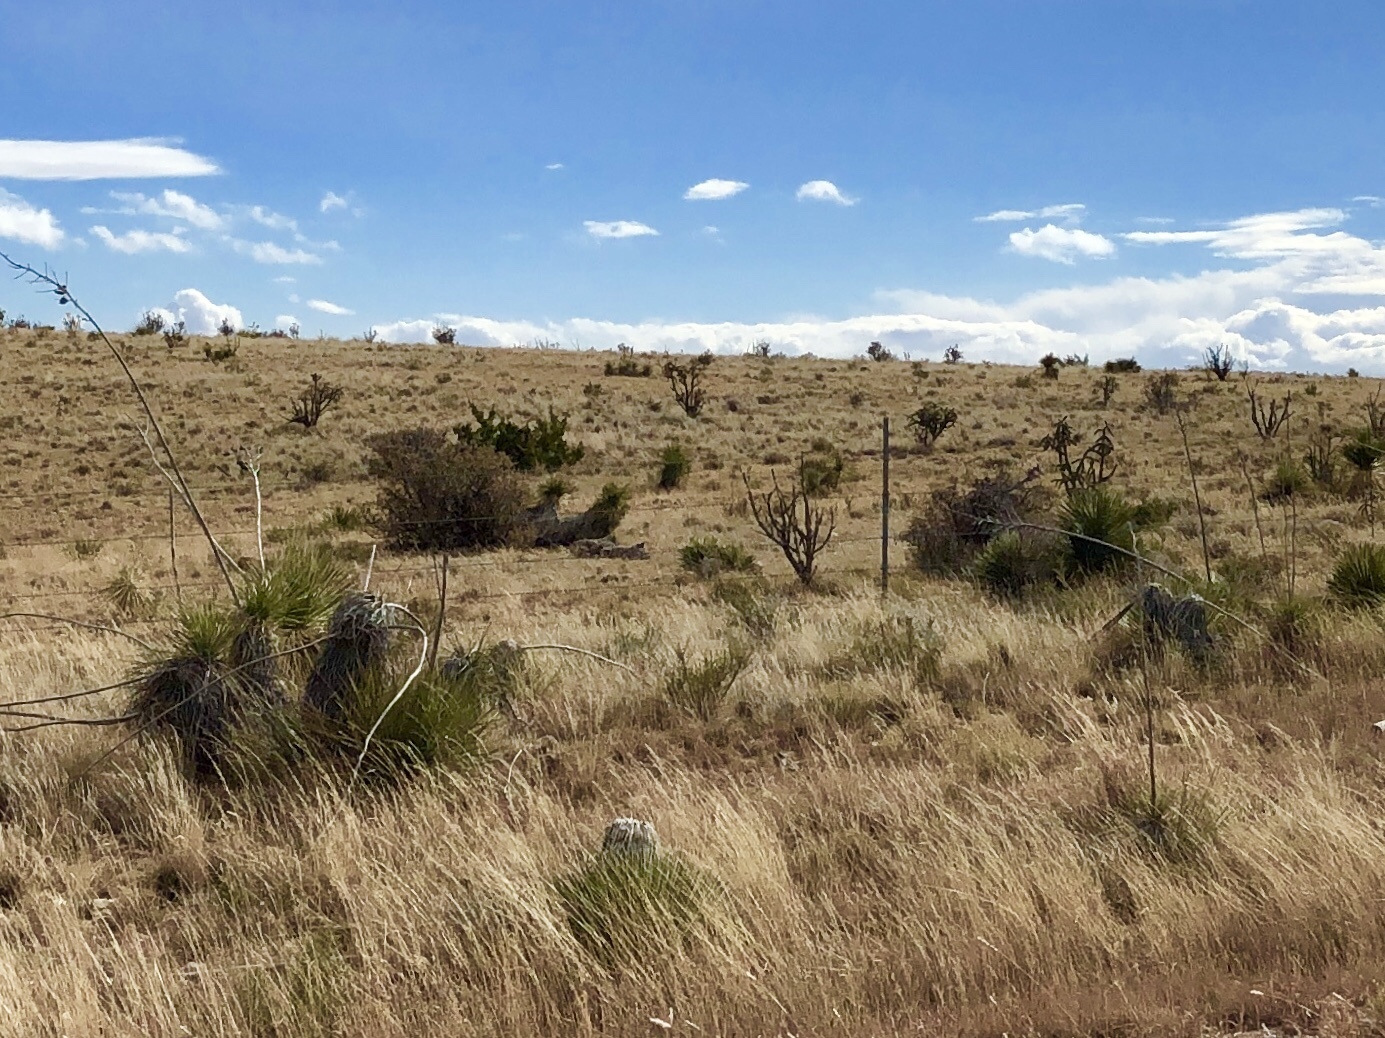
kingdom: Plantae
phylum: Tracheophyta
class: Liliopsida
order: Asparagales
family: Asparagaceae
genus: Yucca
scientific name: Yucca elata
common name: Palmella
